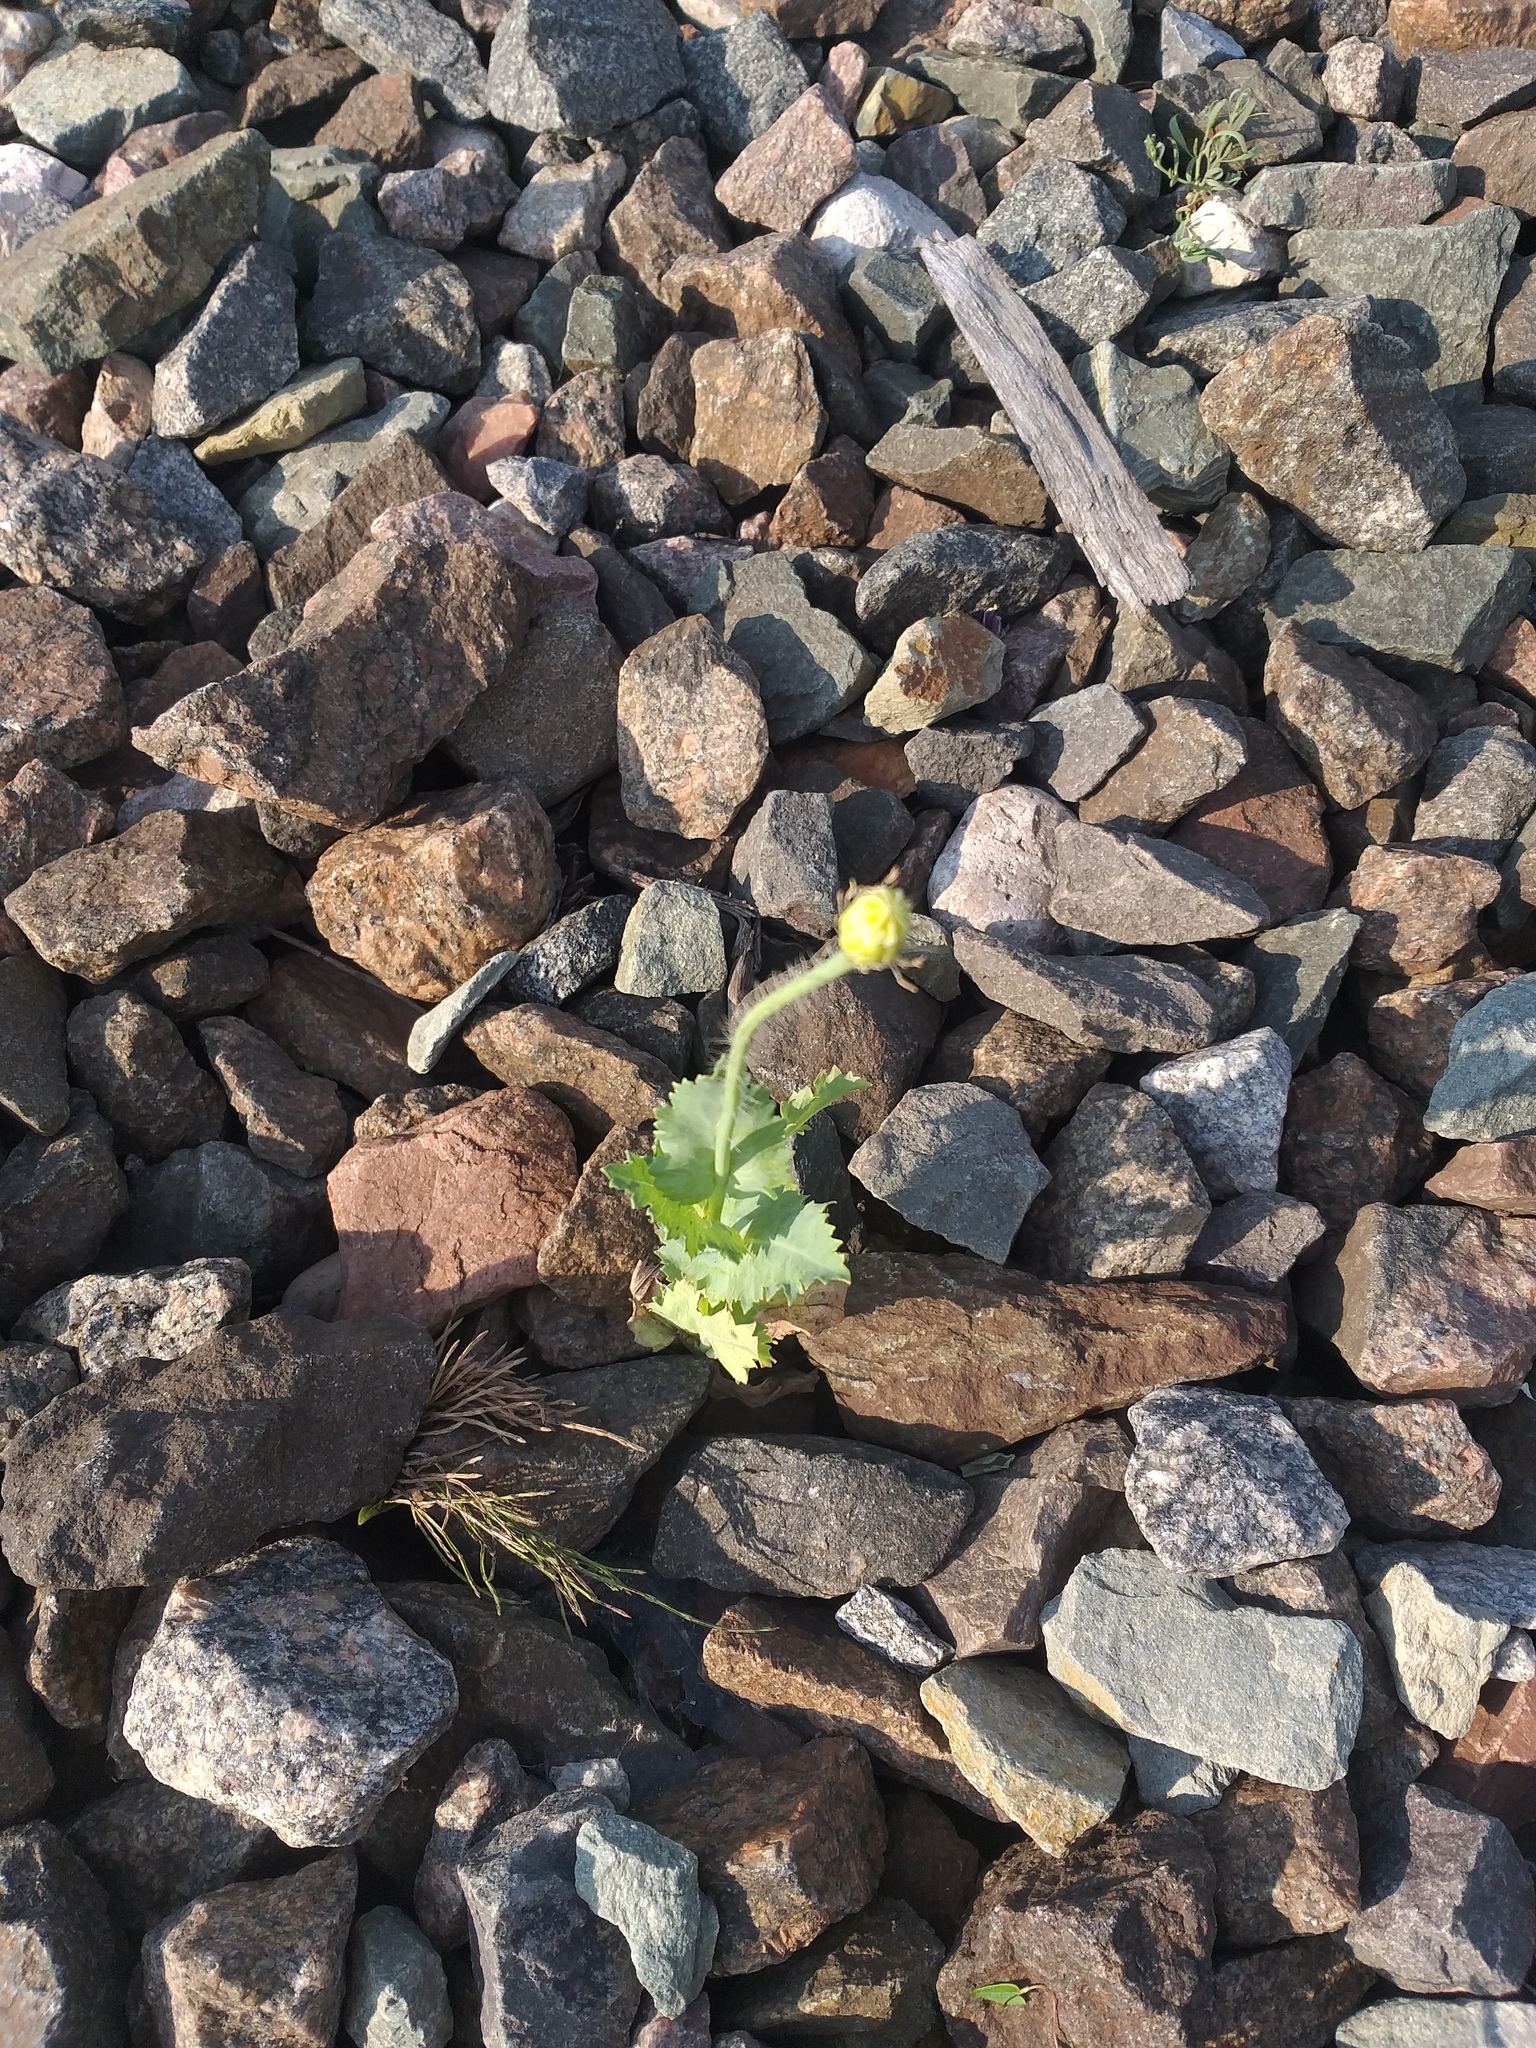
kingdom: Plantae
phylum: Tracheophyta
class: Magnoliopsida
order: Ranunculales
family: Papaveraceae
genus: Papaver
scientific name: Papaver somniferum
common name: Opium poppy
